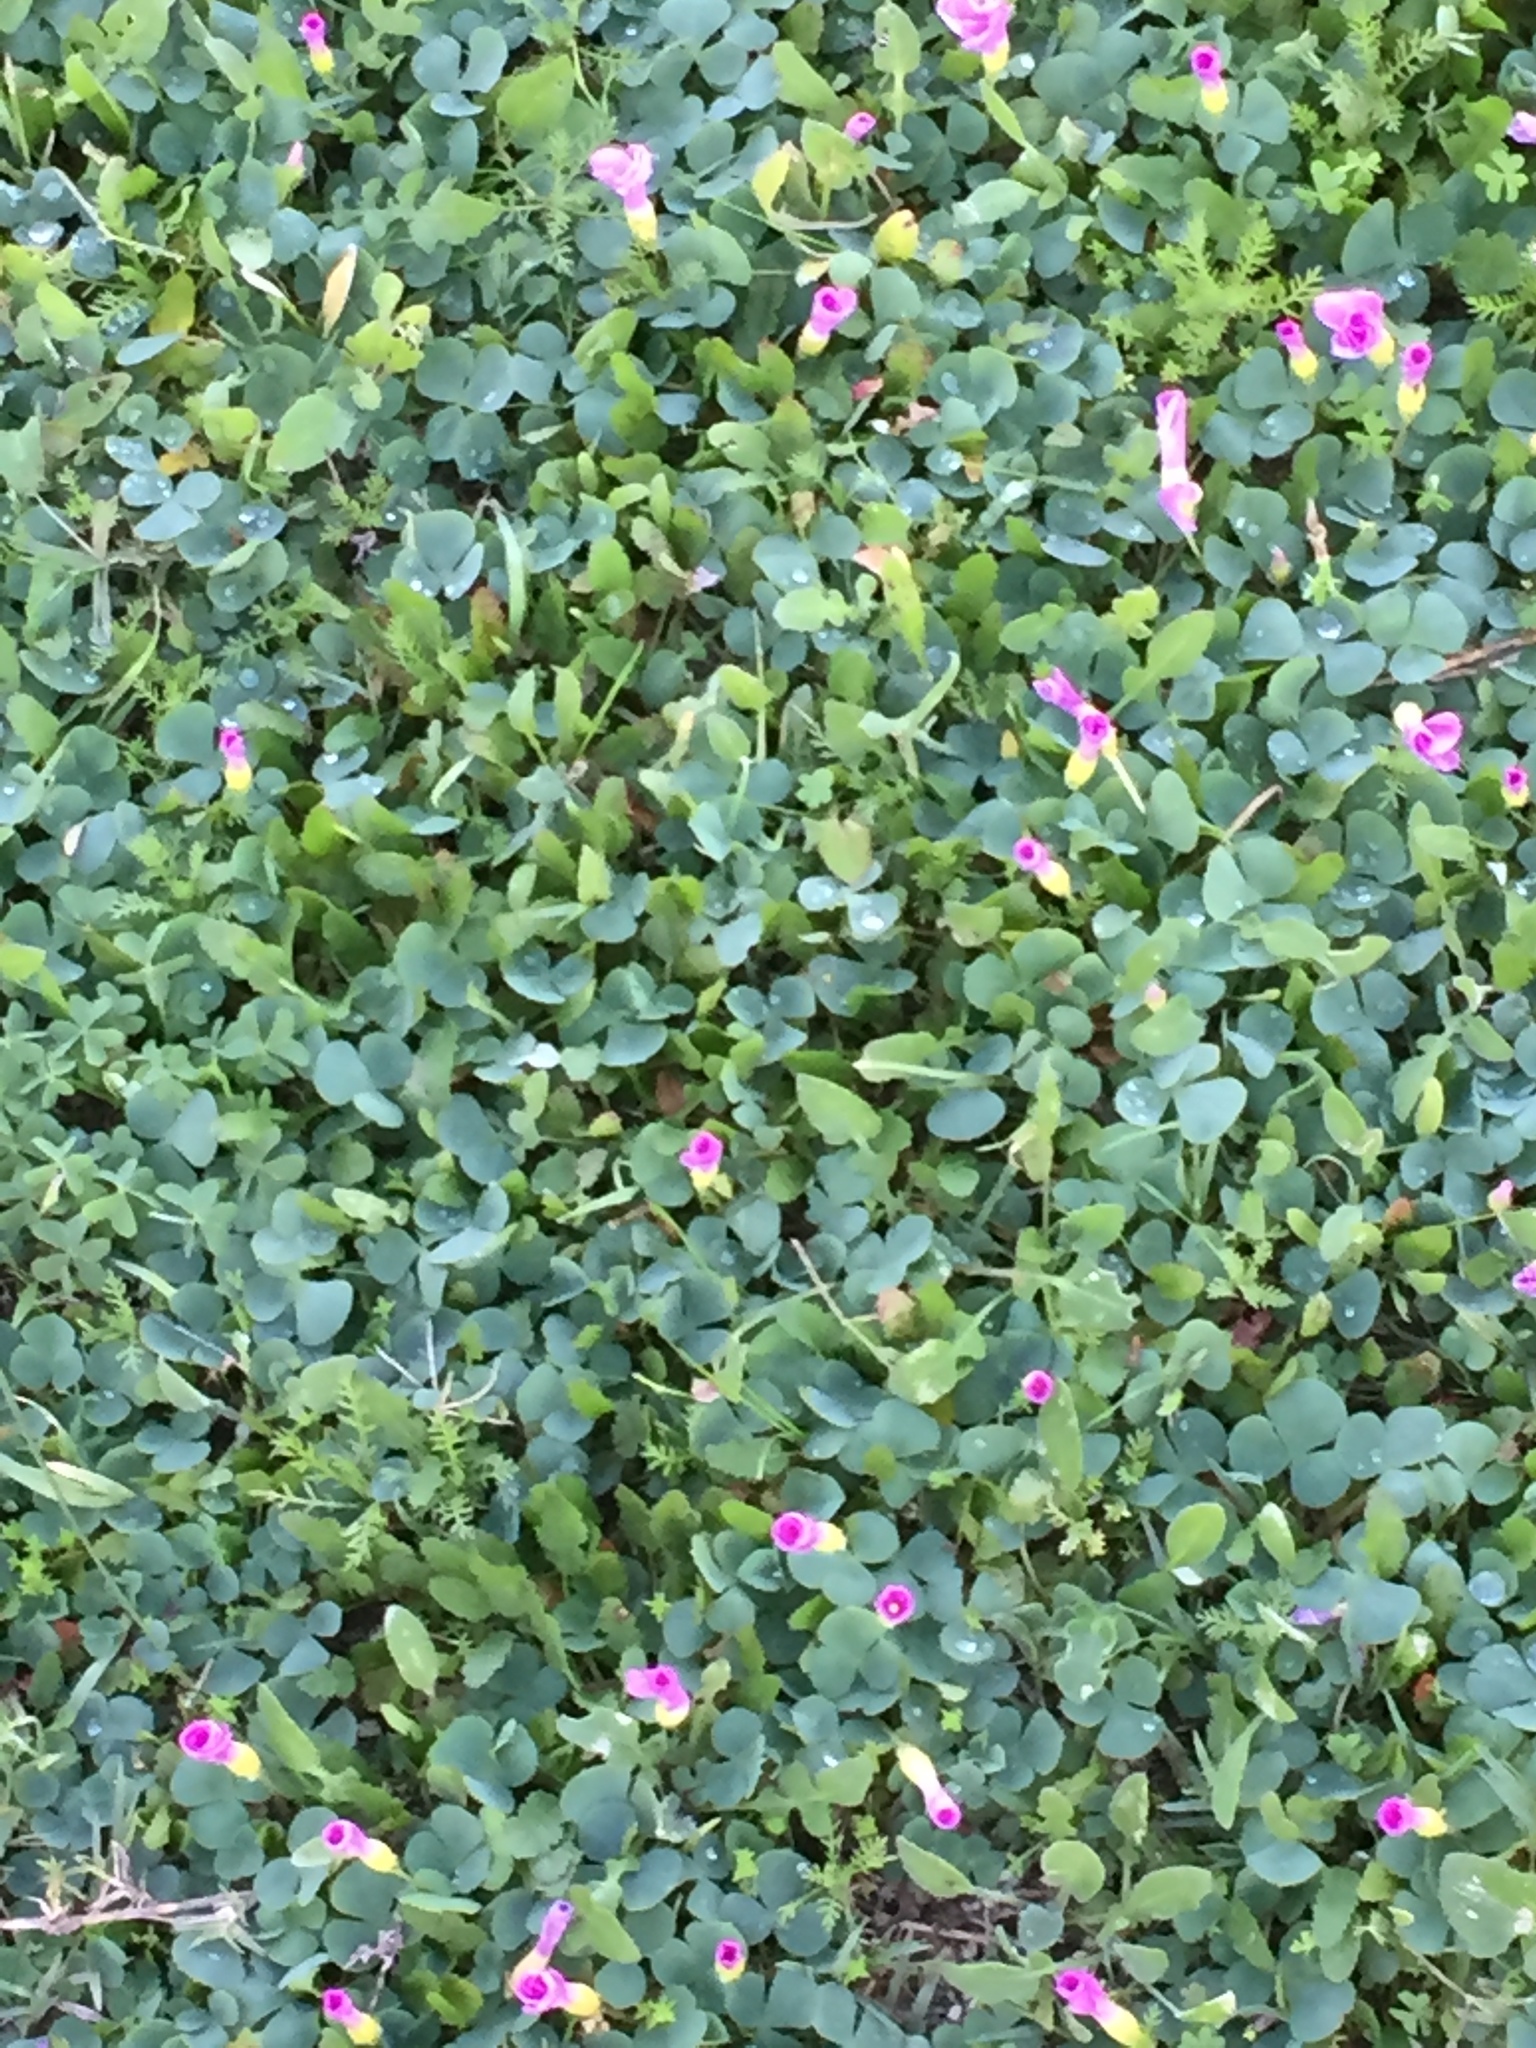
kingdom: Plantae
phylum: Tracheophyta
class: Magnoliopsida
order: Oxalidales
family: Oxalidaceae
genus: Oxalis
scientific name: Oxalis purpurea
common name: Purple woodsorrel
